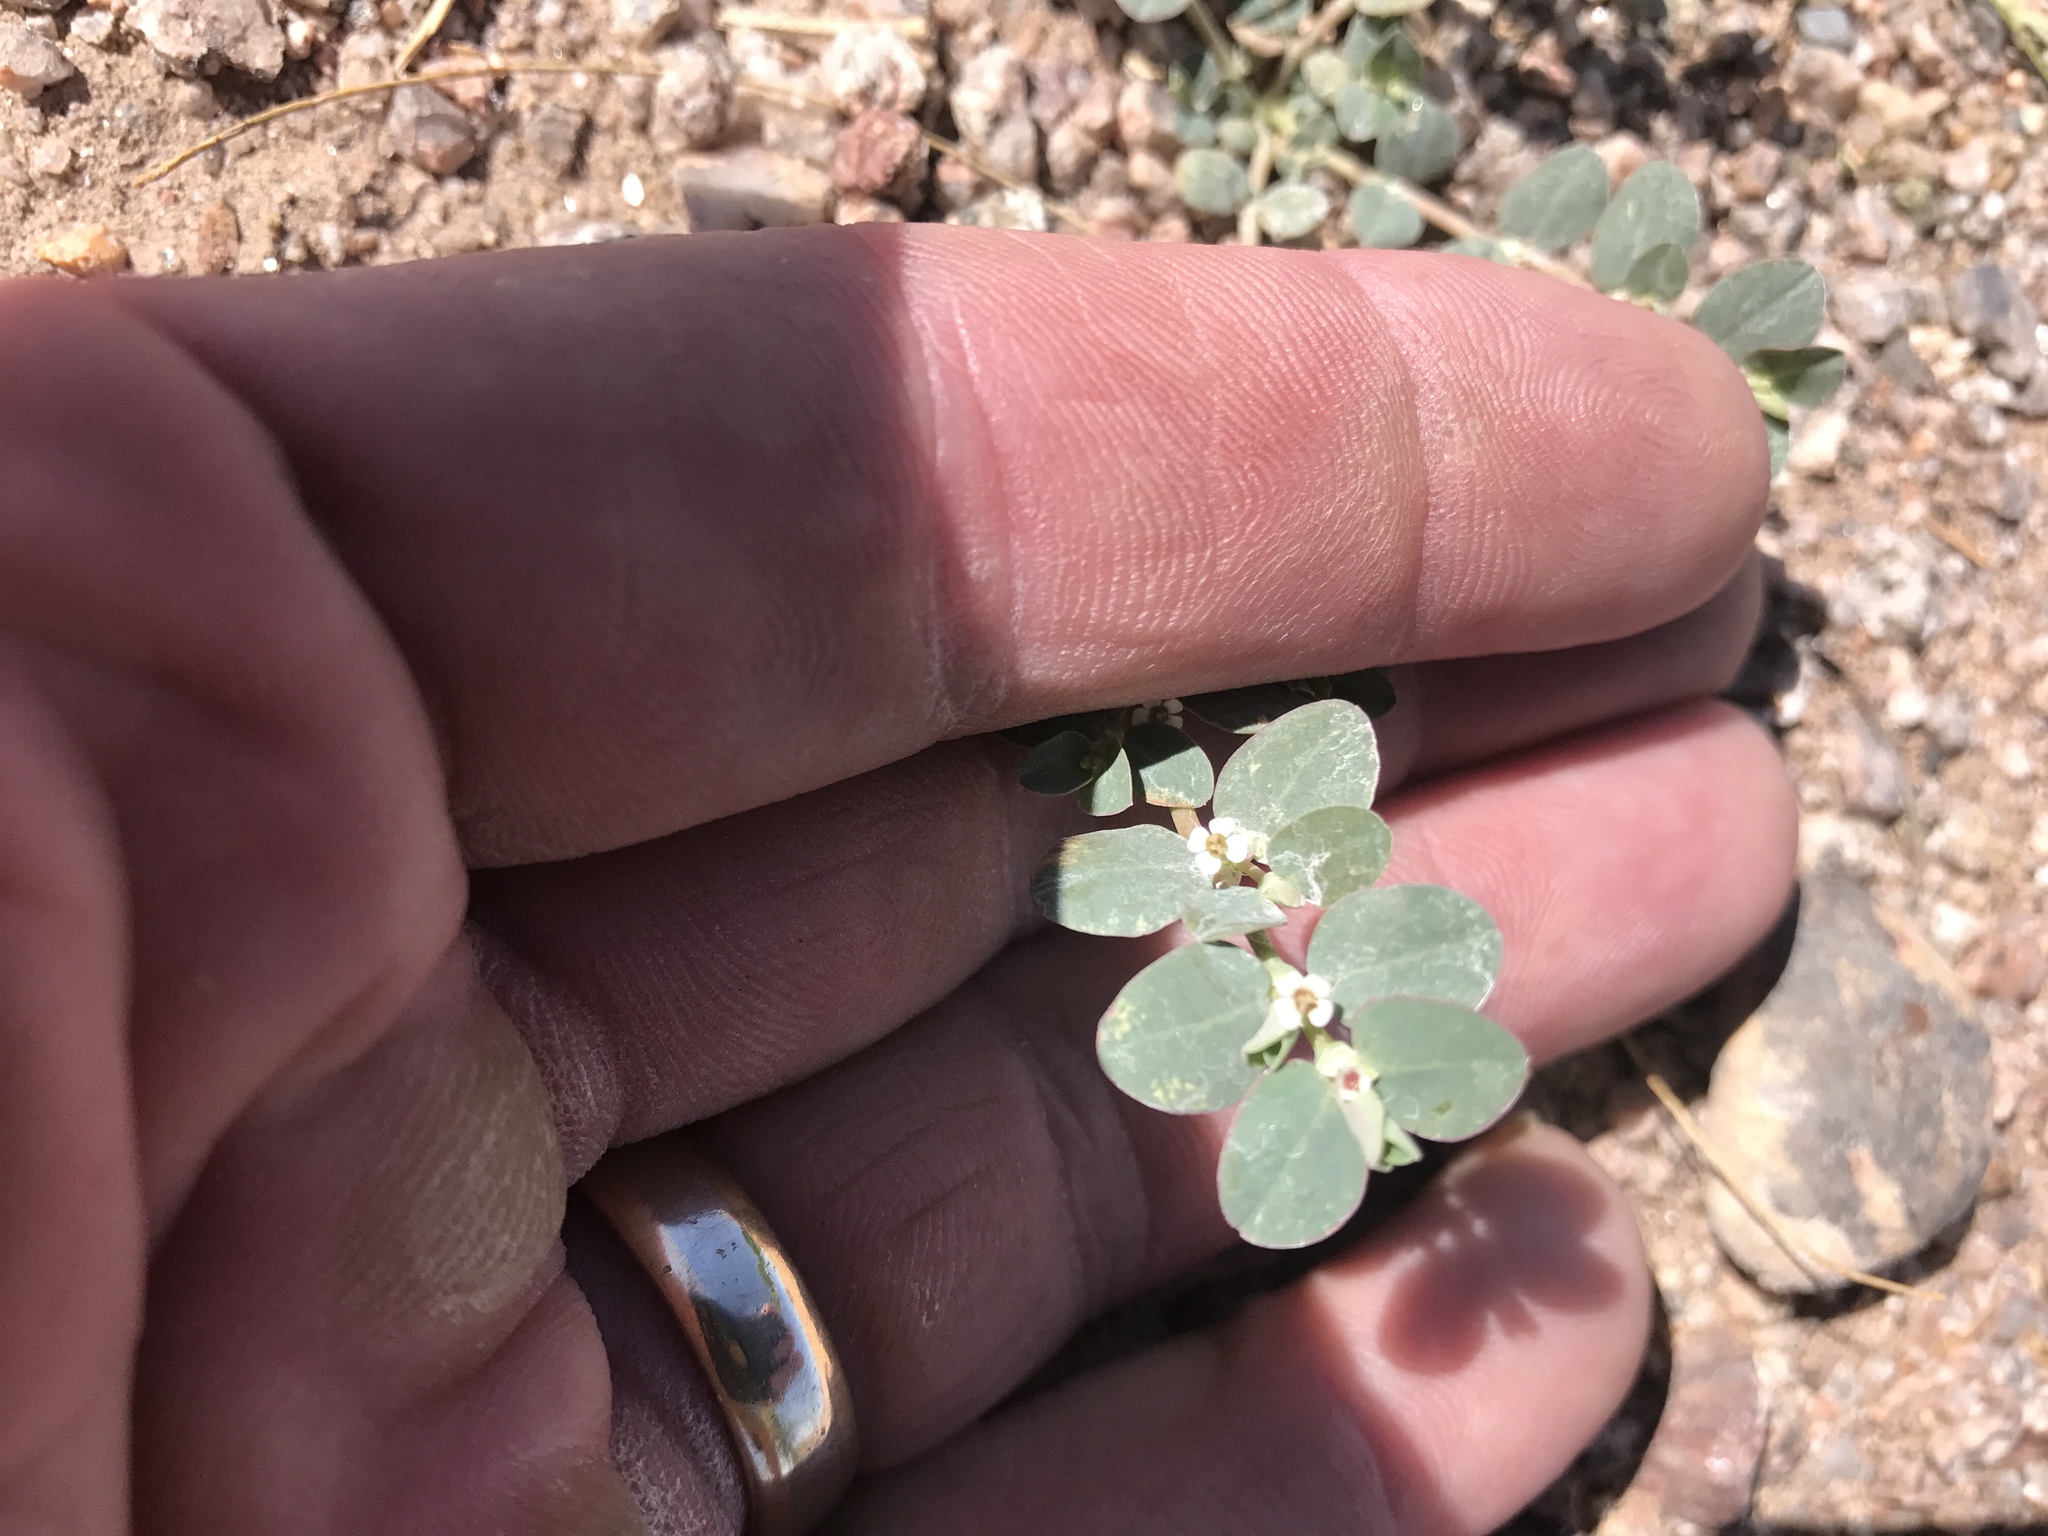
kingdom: Plantae
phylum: Tracheophyta
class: Magnoliopsida
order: Malpighiales
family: Euphorbiaceae
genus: Euphorbia
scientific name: Euphorbia albomarginata
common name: Whitemargin sandmat
